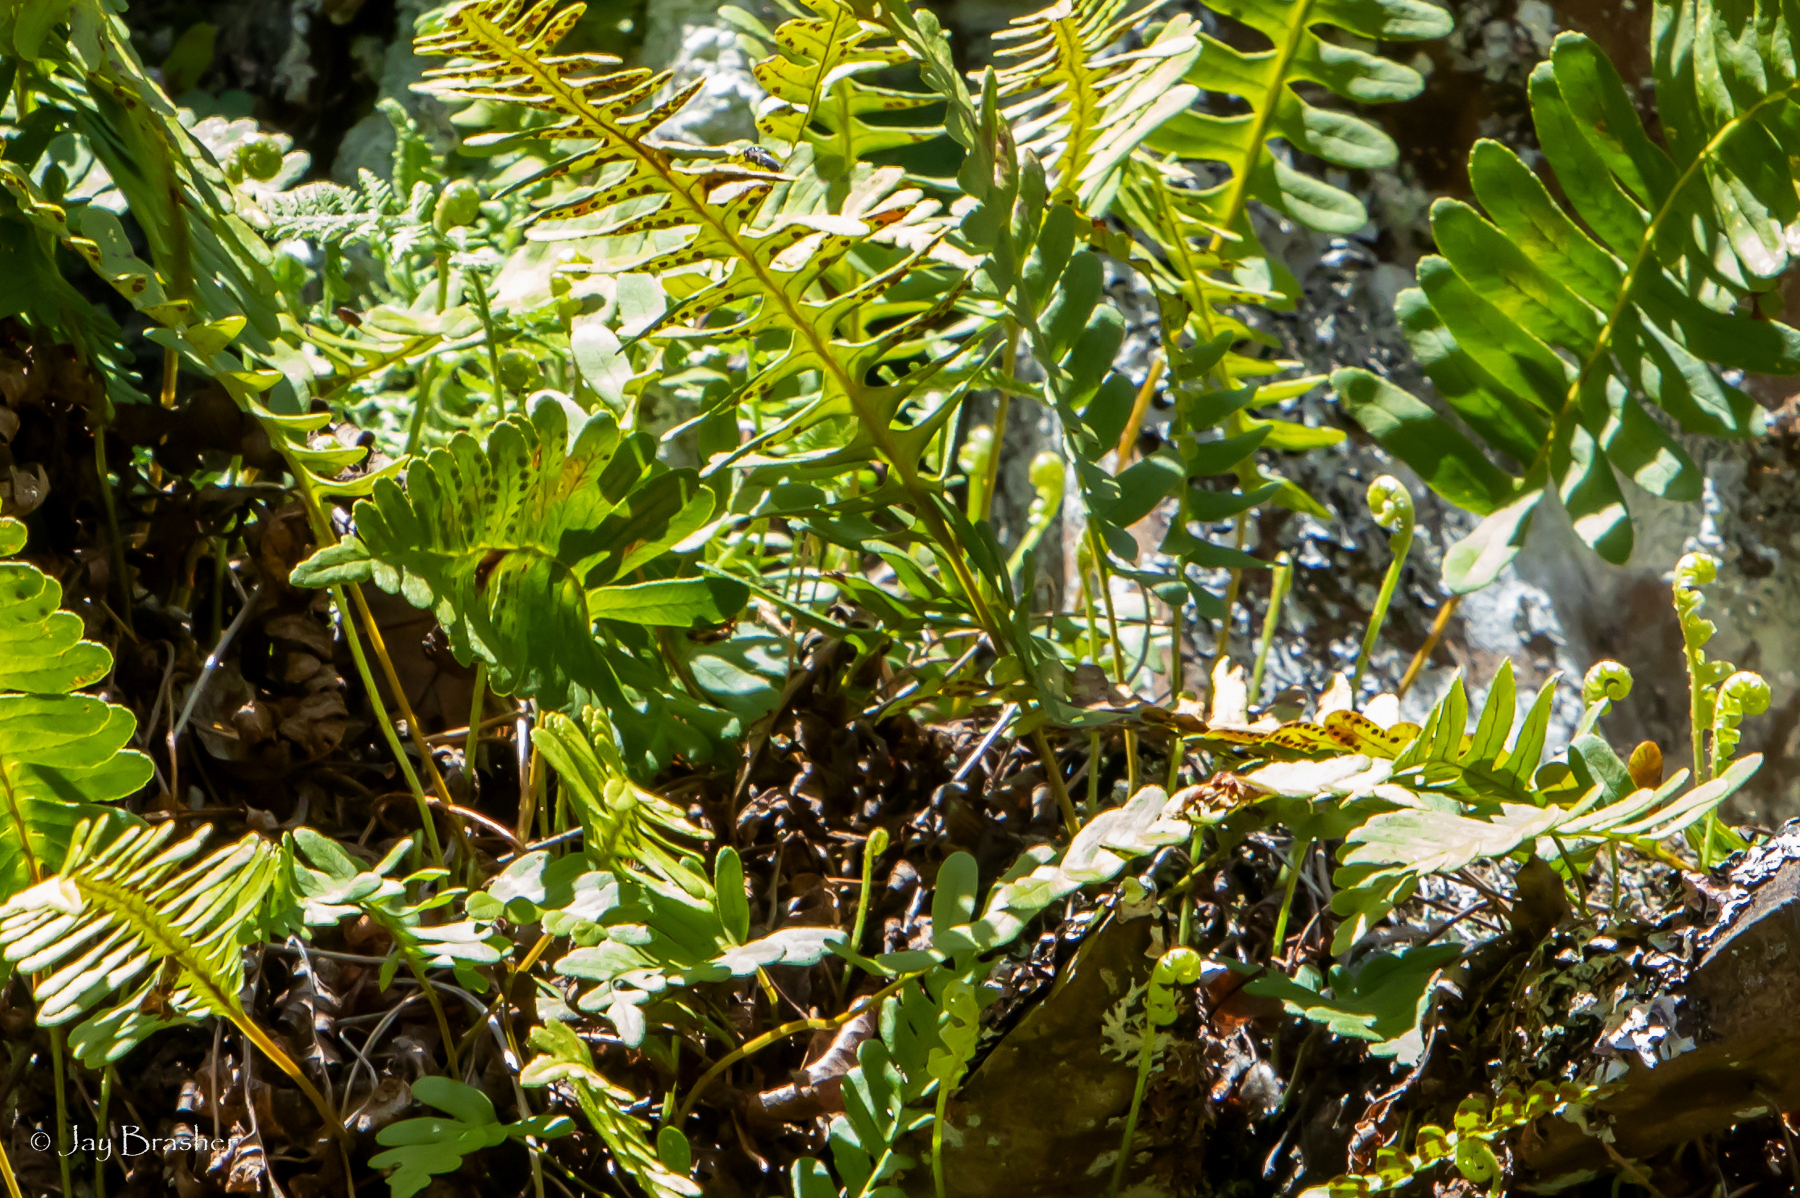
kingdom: Plantae
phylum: Tracheophyta
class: Polypodiopsida
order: Polypodiales
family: Polypodiaceae
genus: Polypodium
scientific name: Polypodium virginianum
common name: American wall fern
